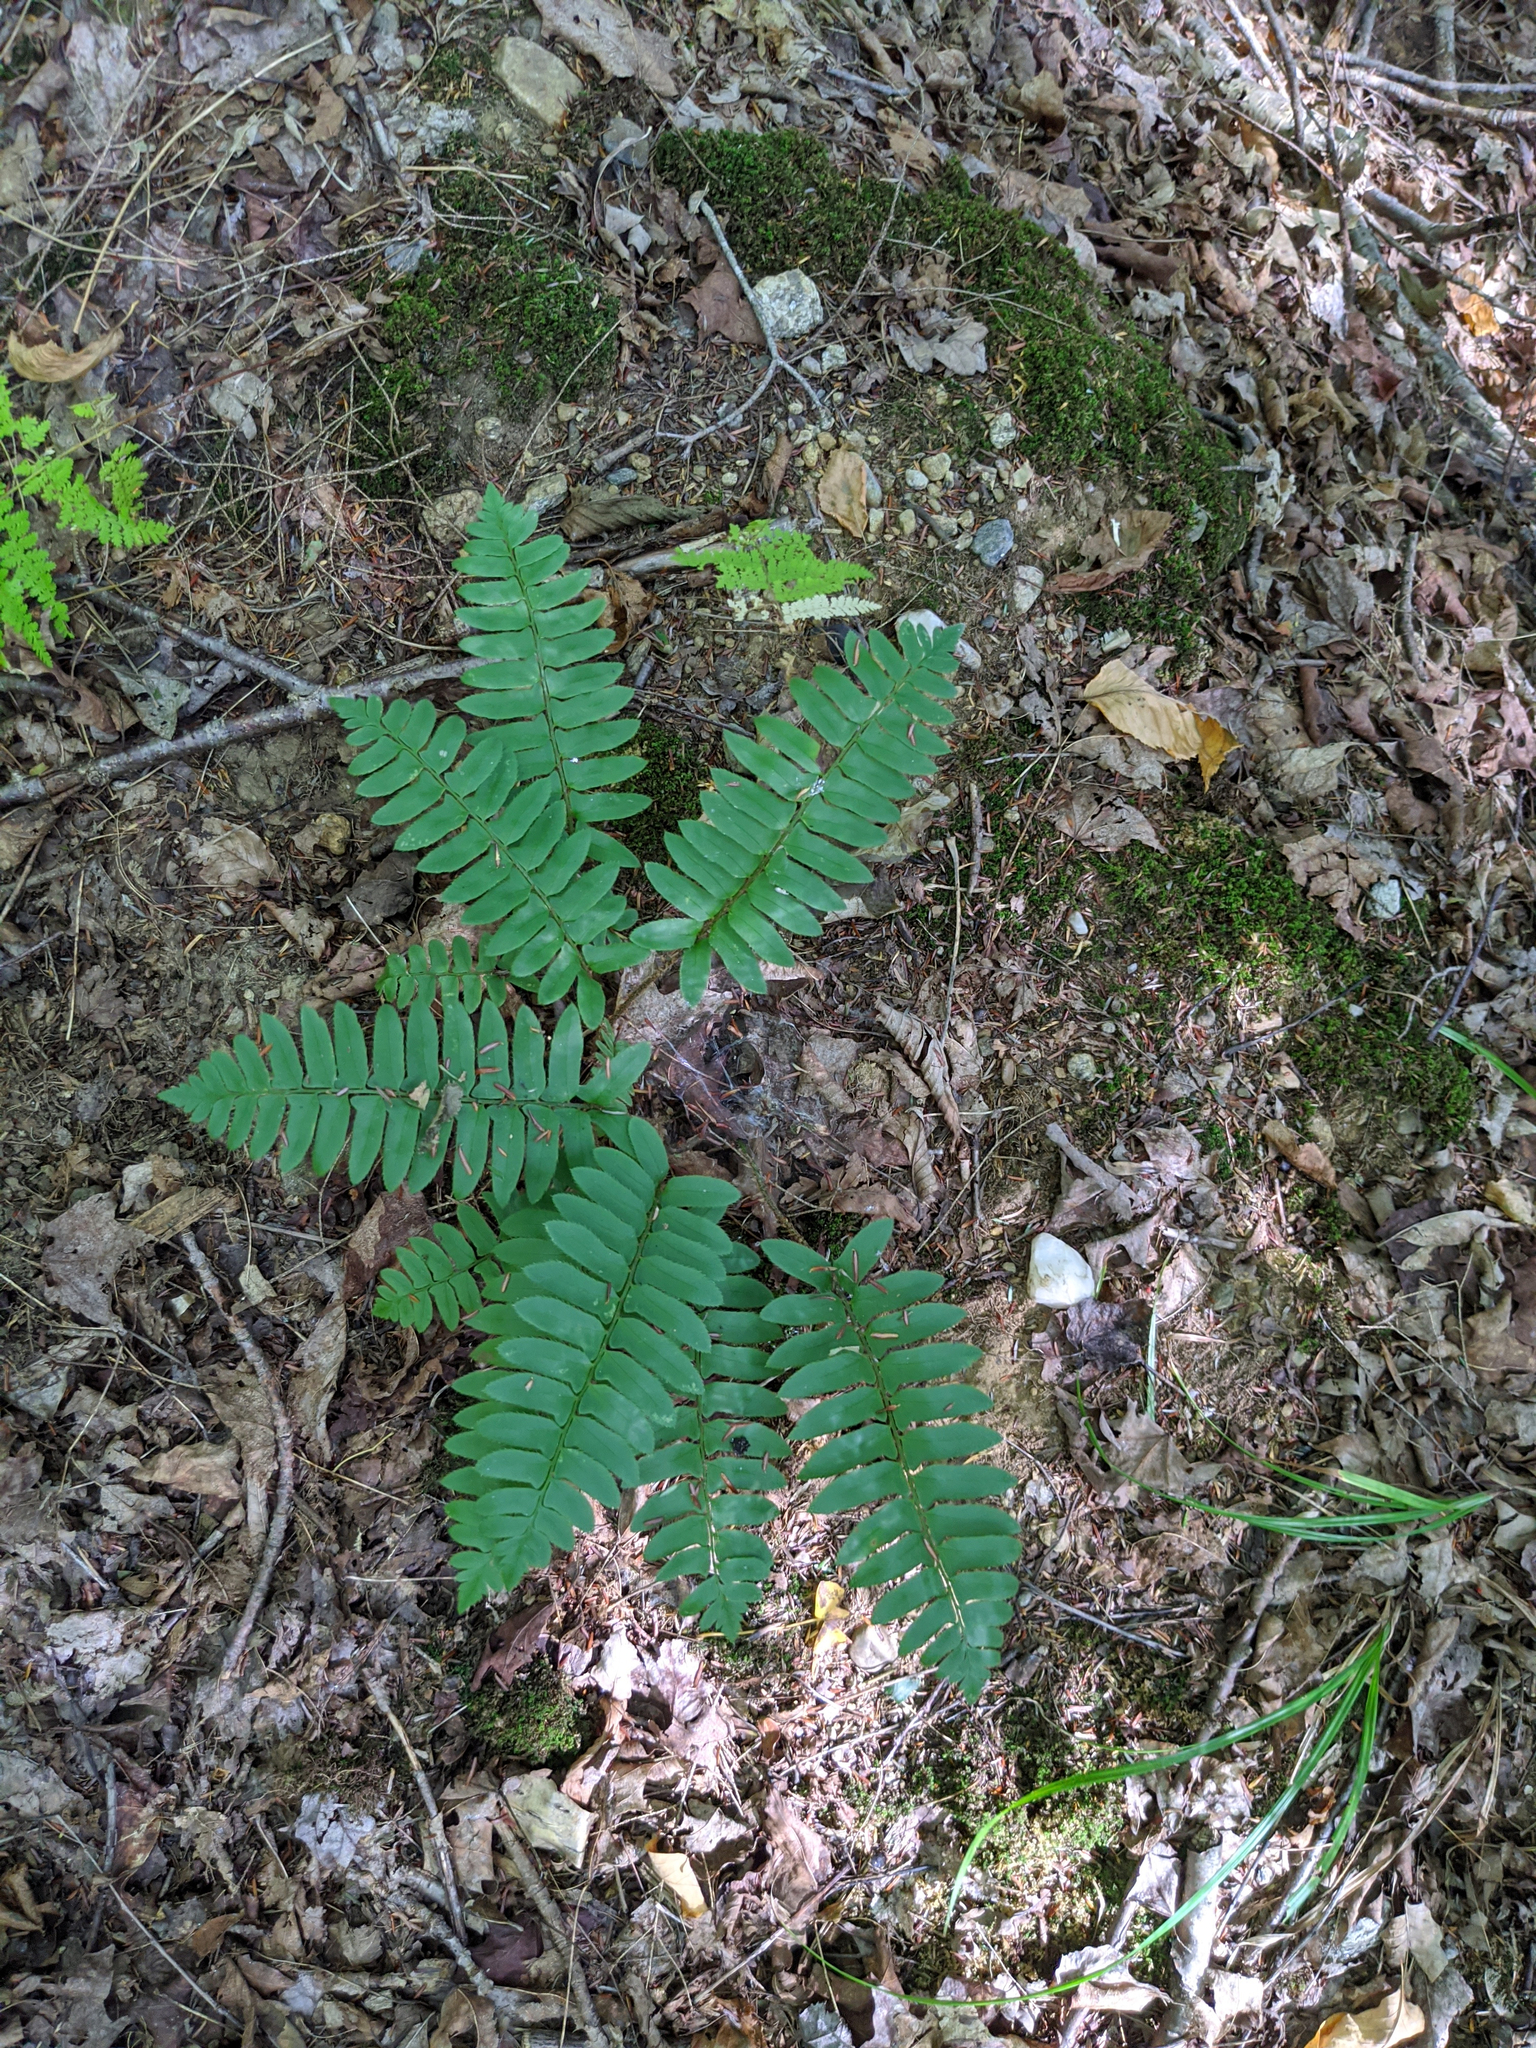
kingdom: Plantae
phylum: Tracheophyta
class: Polypodiopsida
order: Polypodiales
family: Dryopteridaceae
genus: Polystichum
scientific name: Polystichum acrostichoides
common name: Christmas fern
